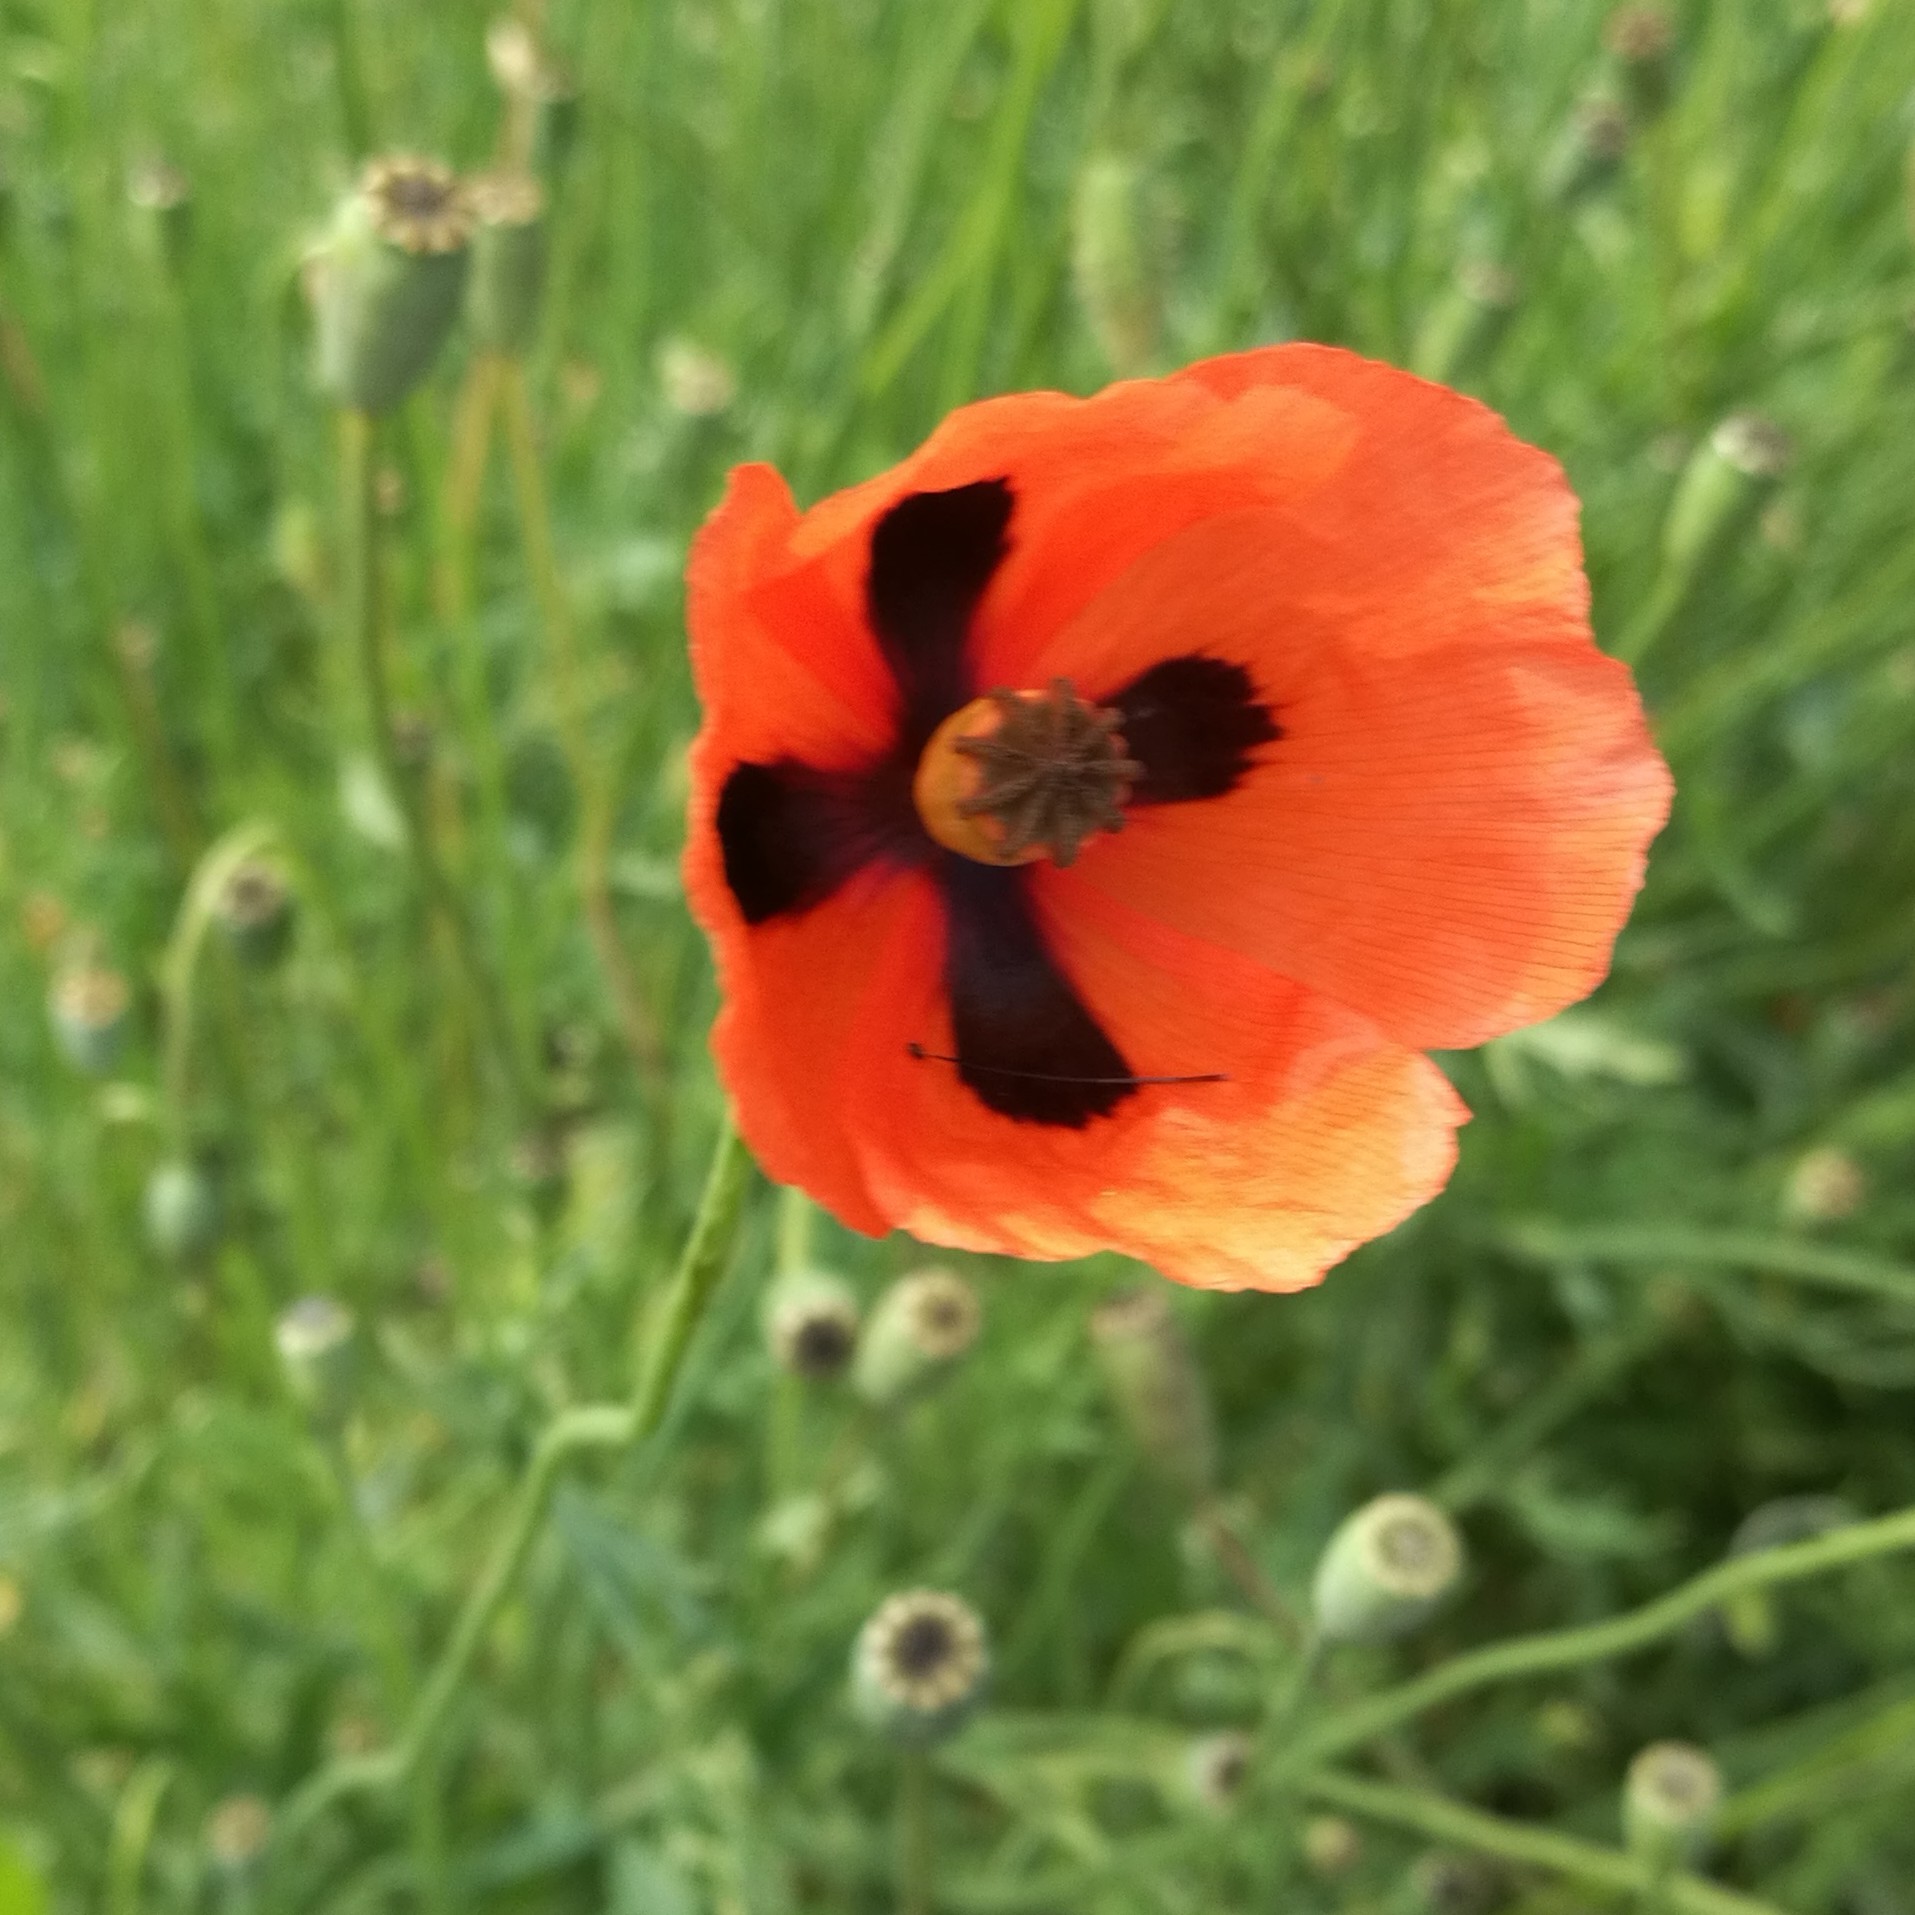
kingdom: Plantae
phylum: Tracheophyta
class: Magnoliopsida
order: Ranunculales
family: Papaveraceae
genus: Papaver
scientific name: Papaver dubium
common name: Long-headed poppy
